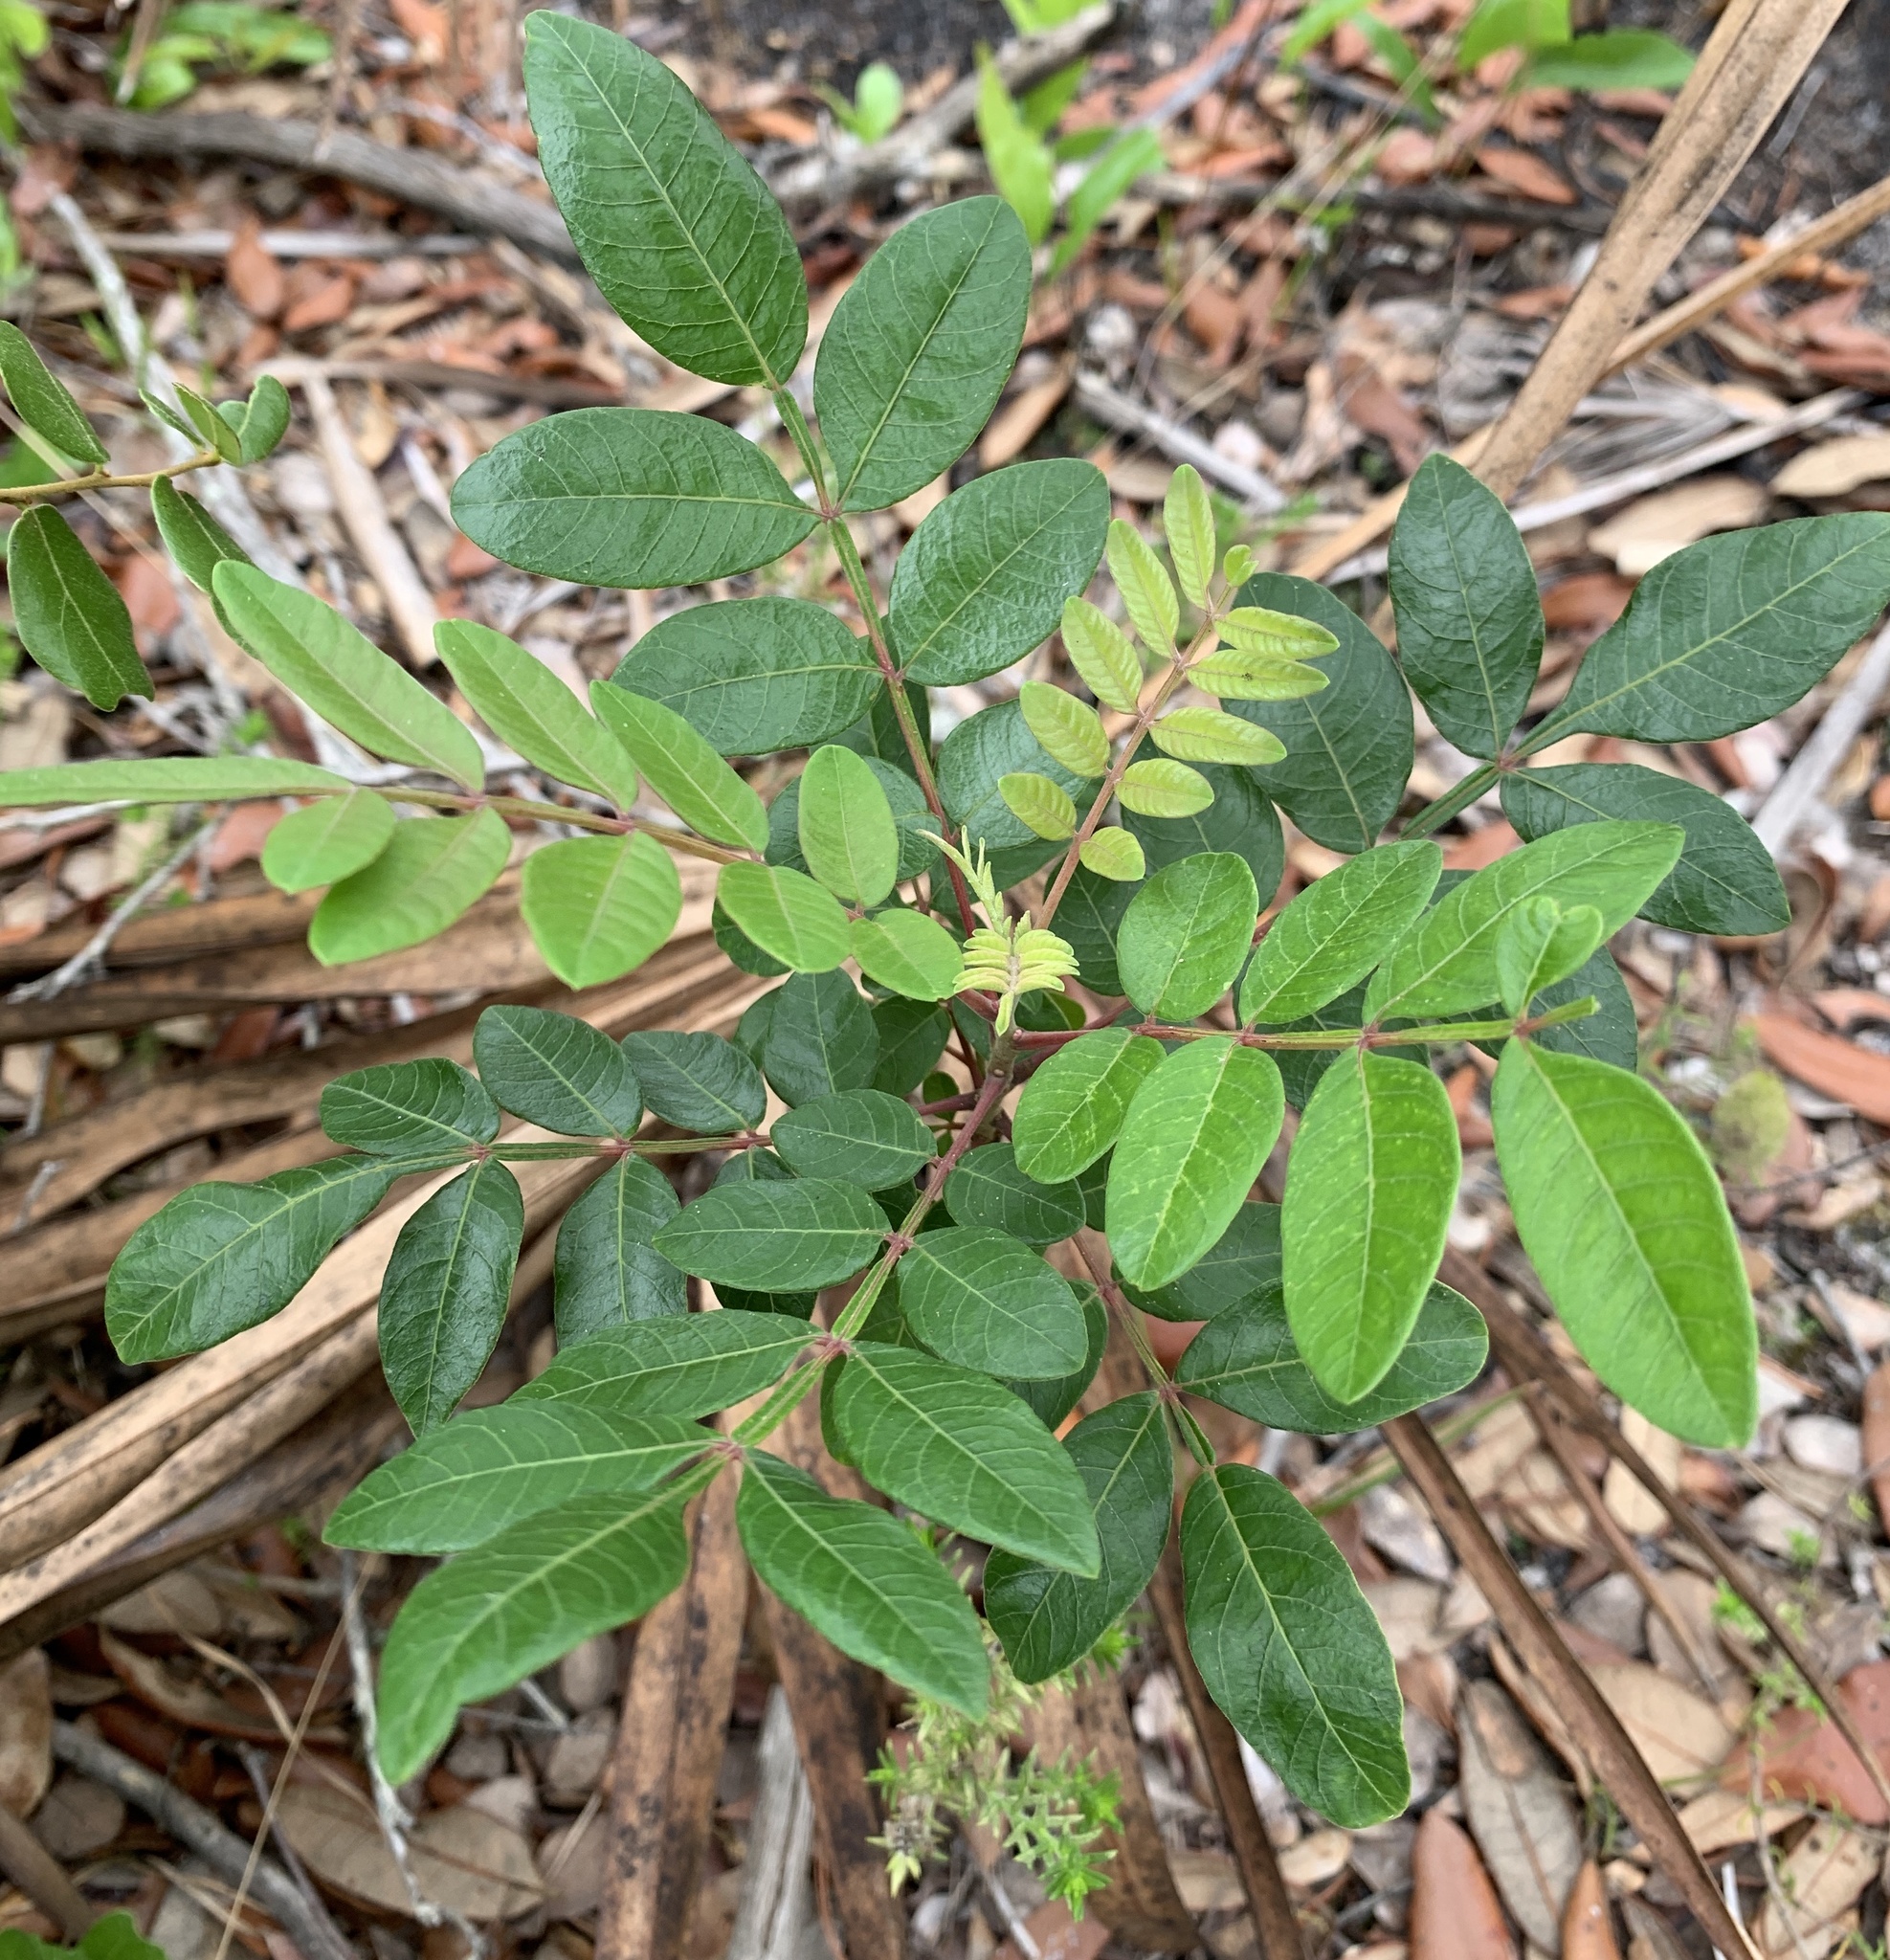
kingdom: Plantae
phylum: Tracheophyta
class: Magnoliopsida
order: Sapindales
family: Anacardiaceae
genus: Rhus
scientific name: Rhus copallina
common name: Shining sumac
